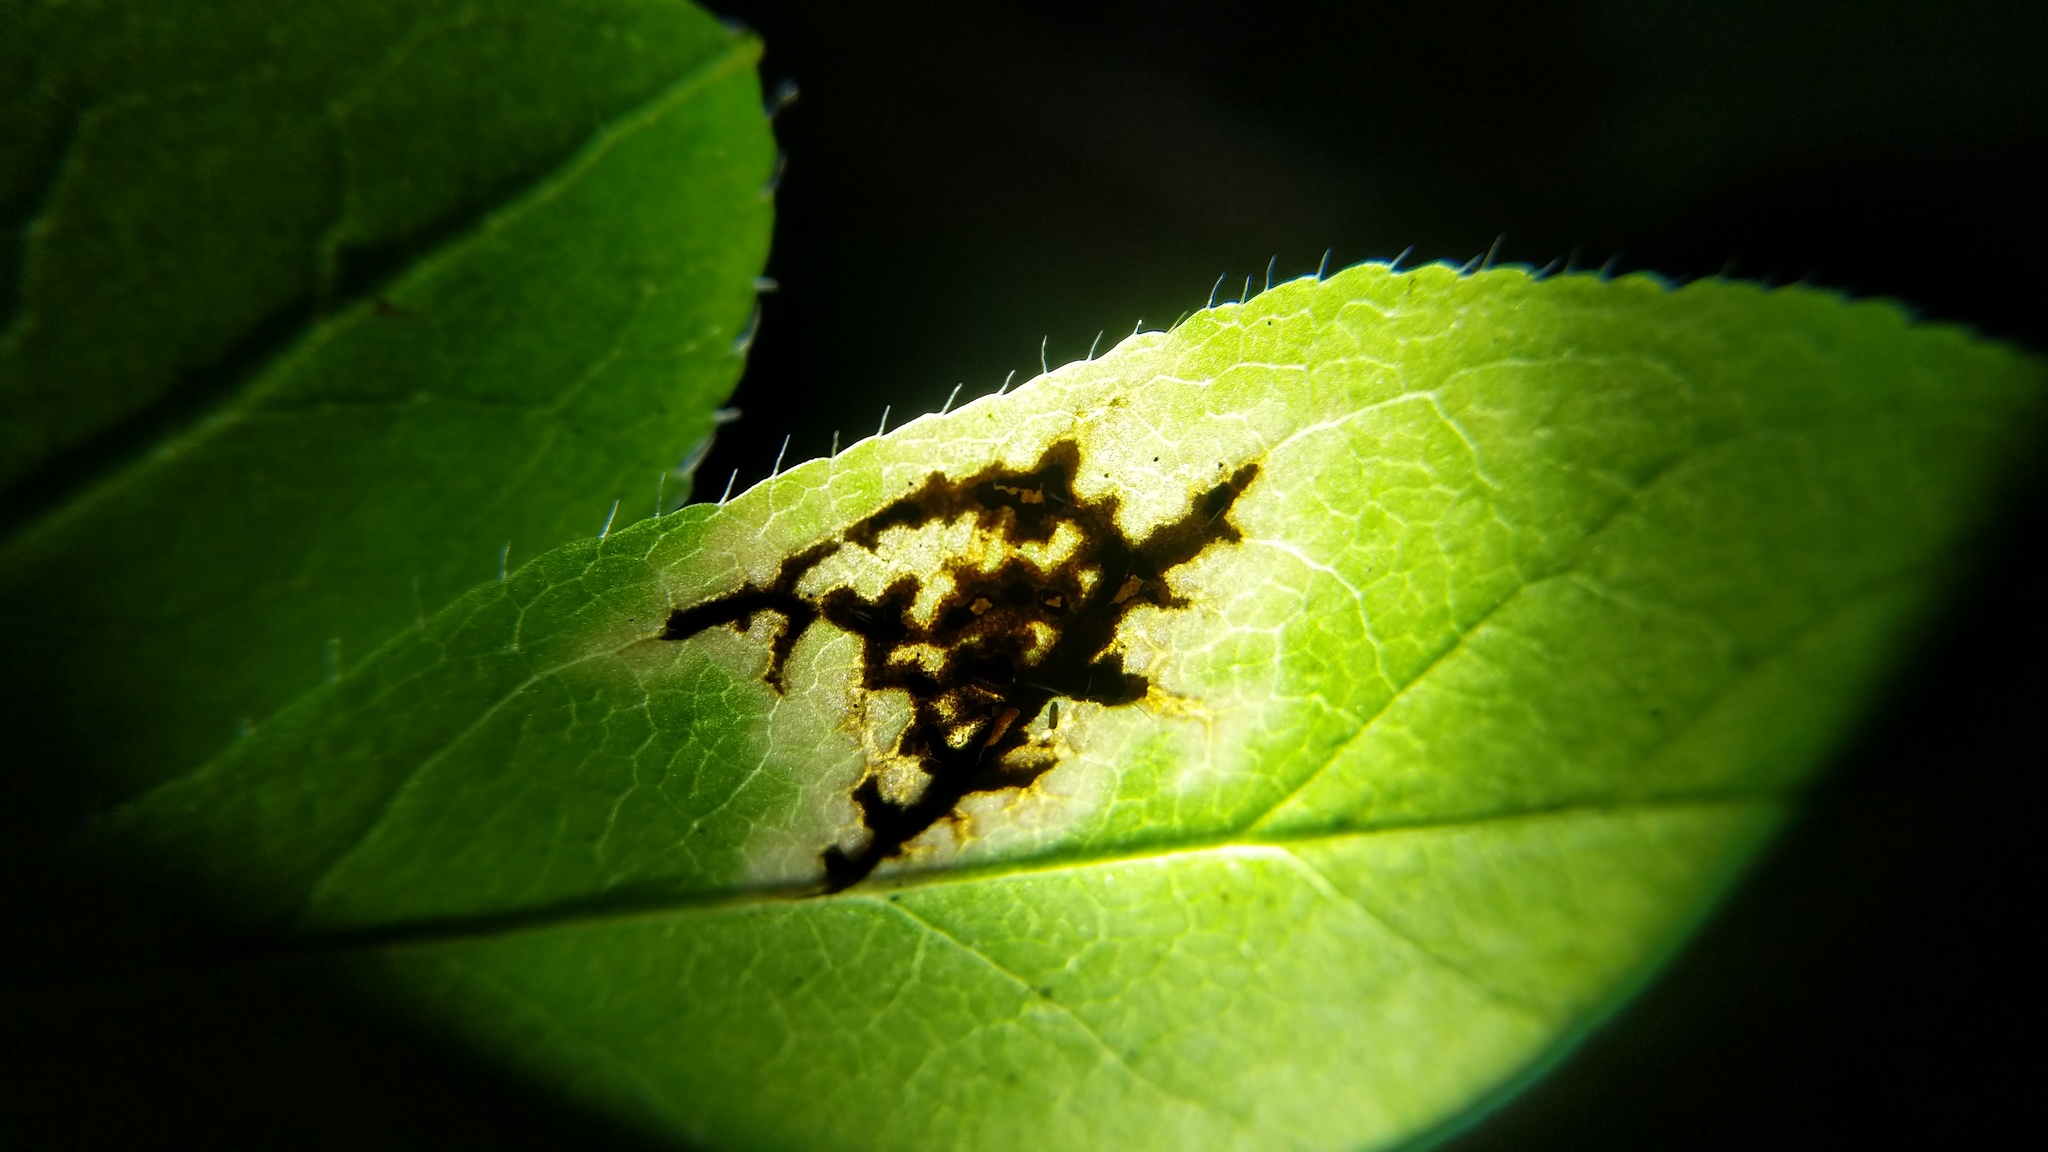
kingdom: Fungi
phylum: Ascomycota
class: Leotiomycetes
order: Rhytismatales
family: Rhytismataceae
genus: Rhytisma
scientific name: Rhytisma
